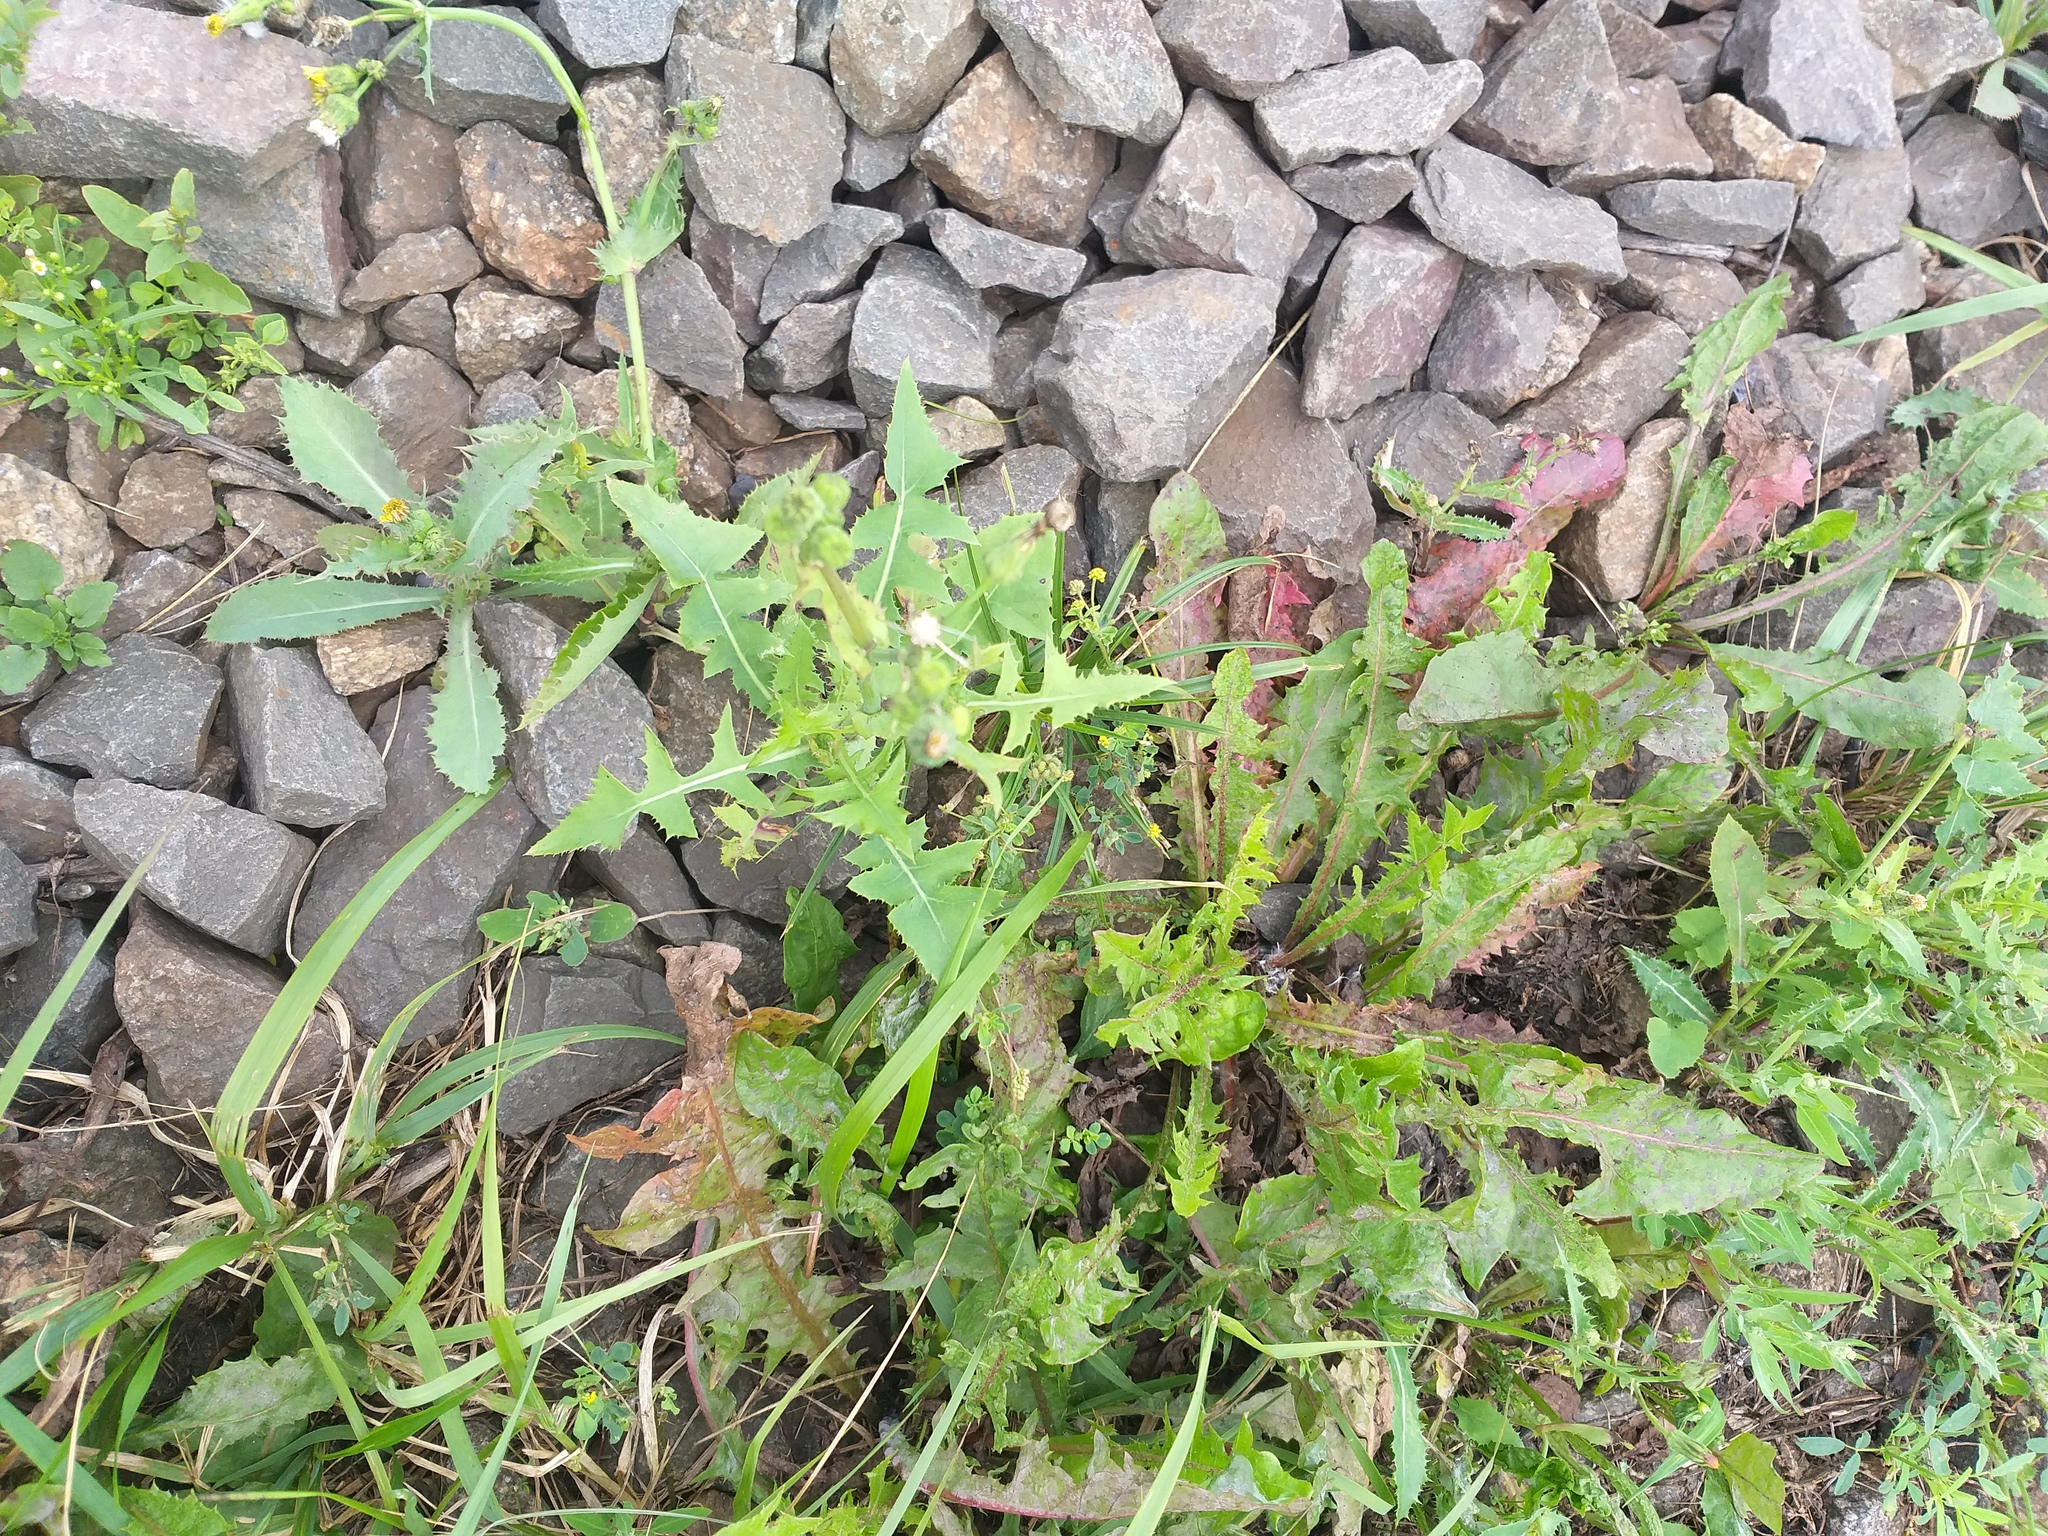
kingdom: Plantae
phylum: Tracheophyta
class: Magnoliopsida
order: Asterales
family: Asteraceae
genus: Sonchus
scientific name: Sonchus oleraceus
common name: Common sowthistle
